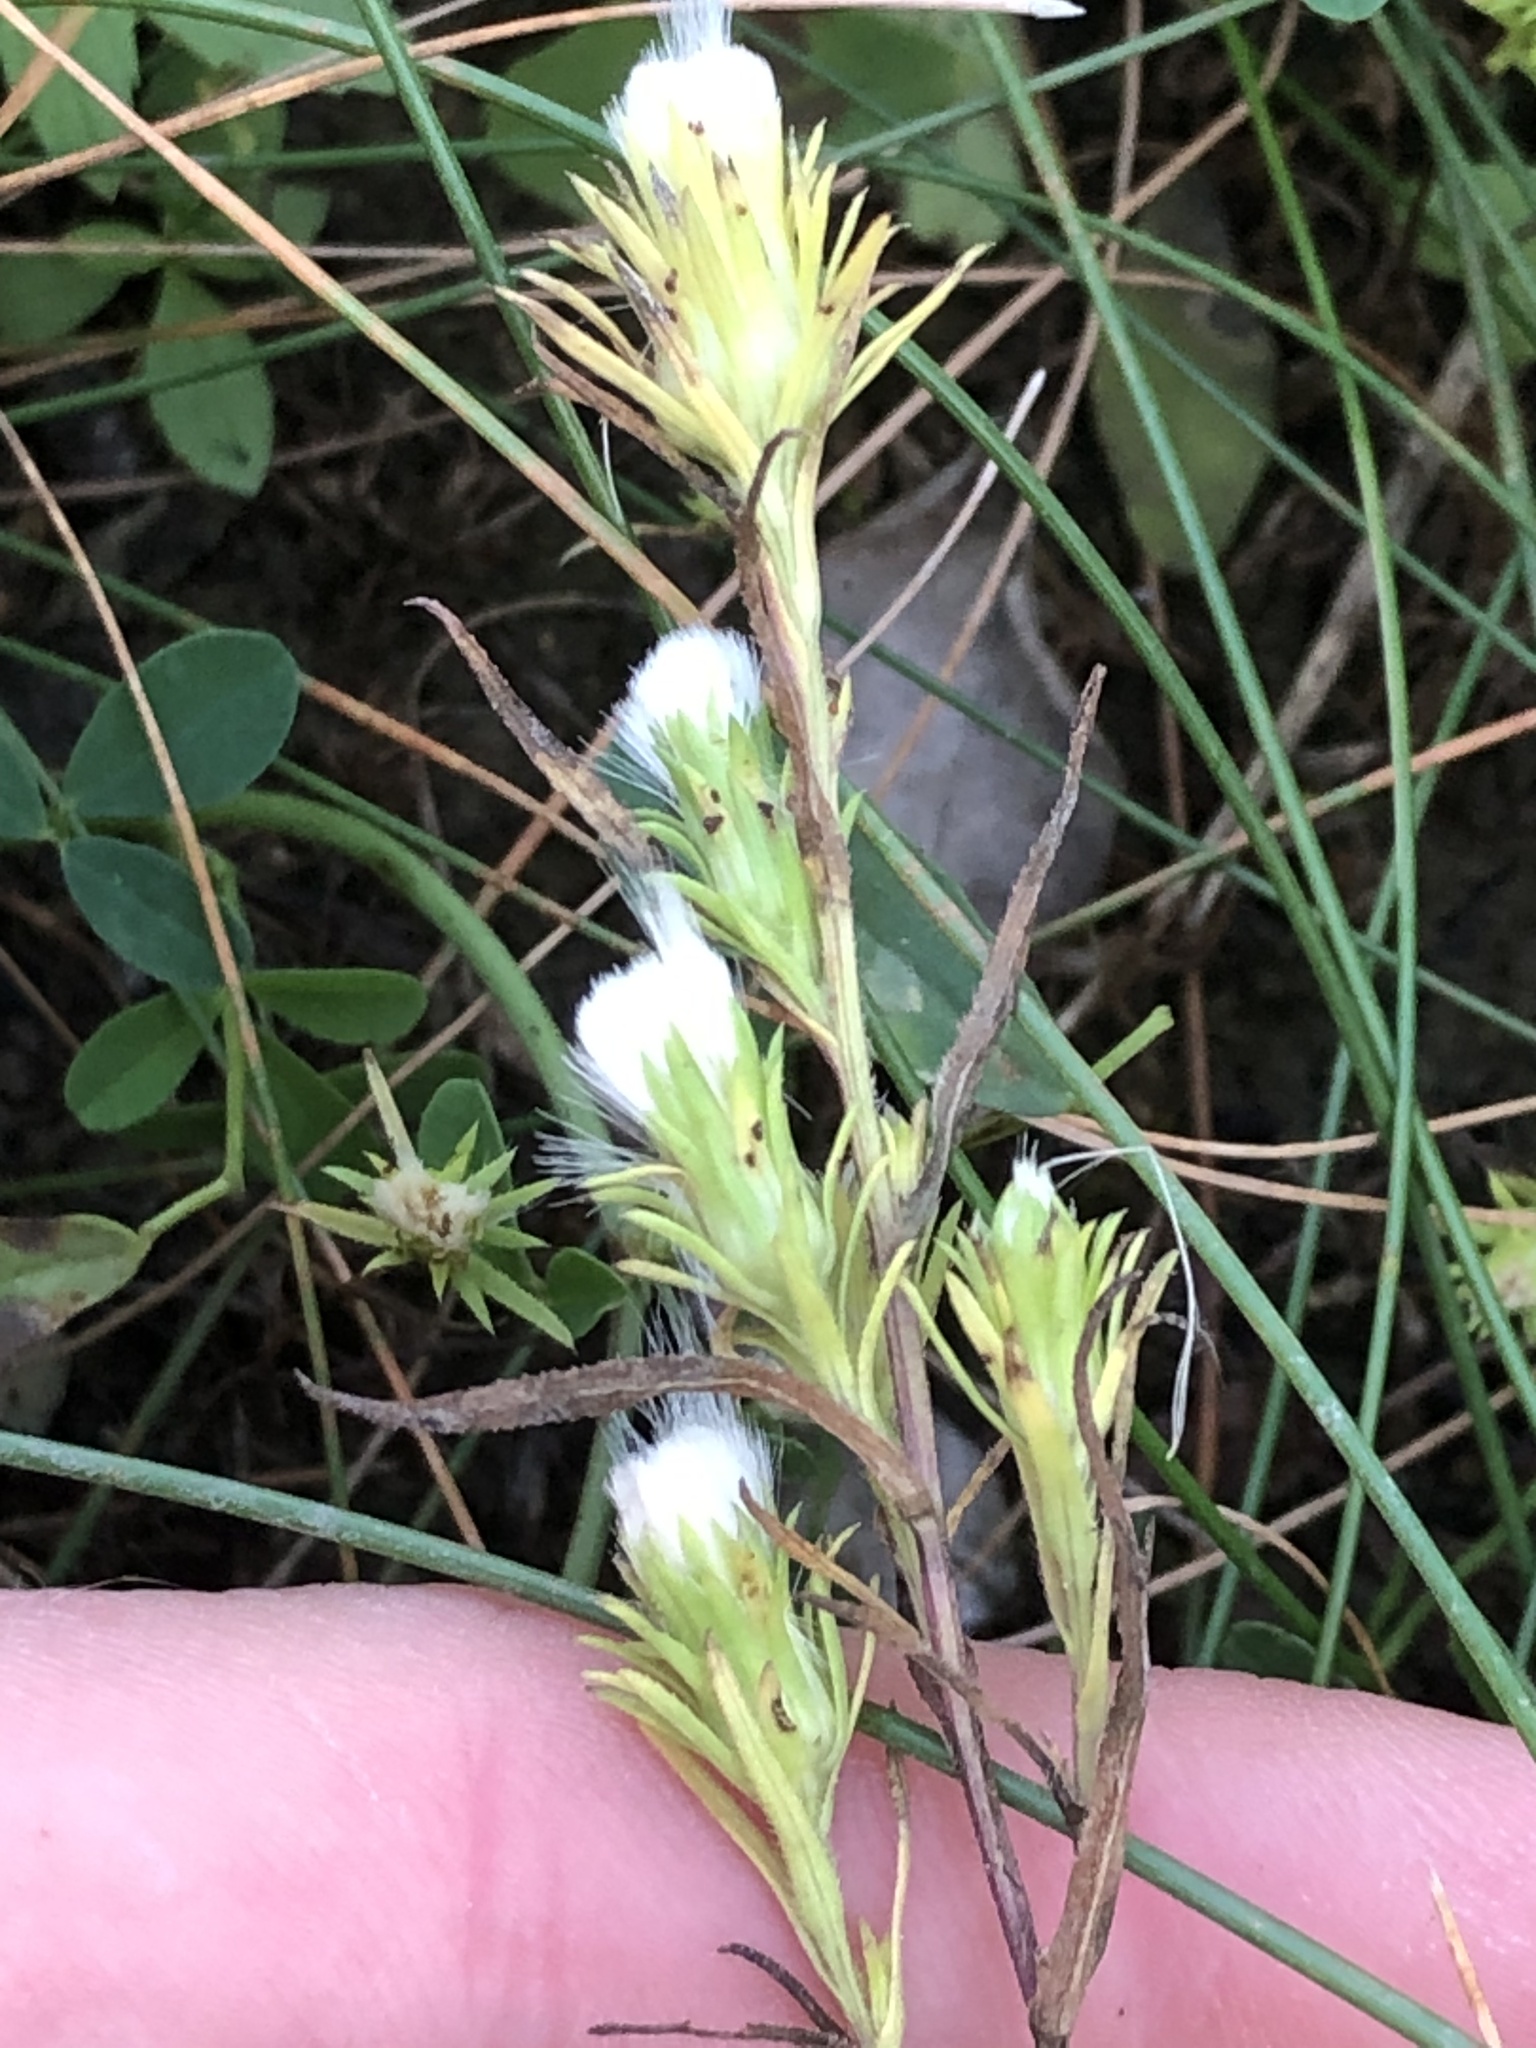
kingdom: Plantae
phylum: Tracheophyta
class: Magnoliopsida
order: Asterales
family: Asteraceae
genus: Symphyotrichum
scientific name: Symphyotrichum ciliatum
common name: Rayless annual aster
